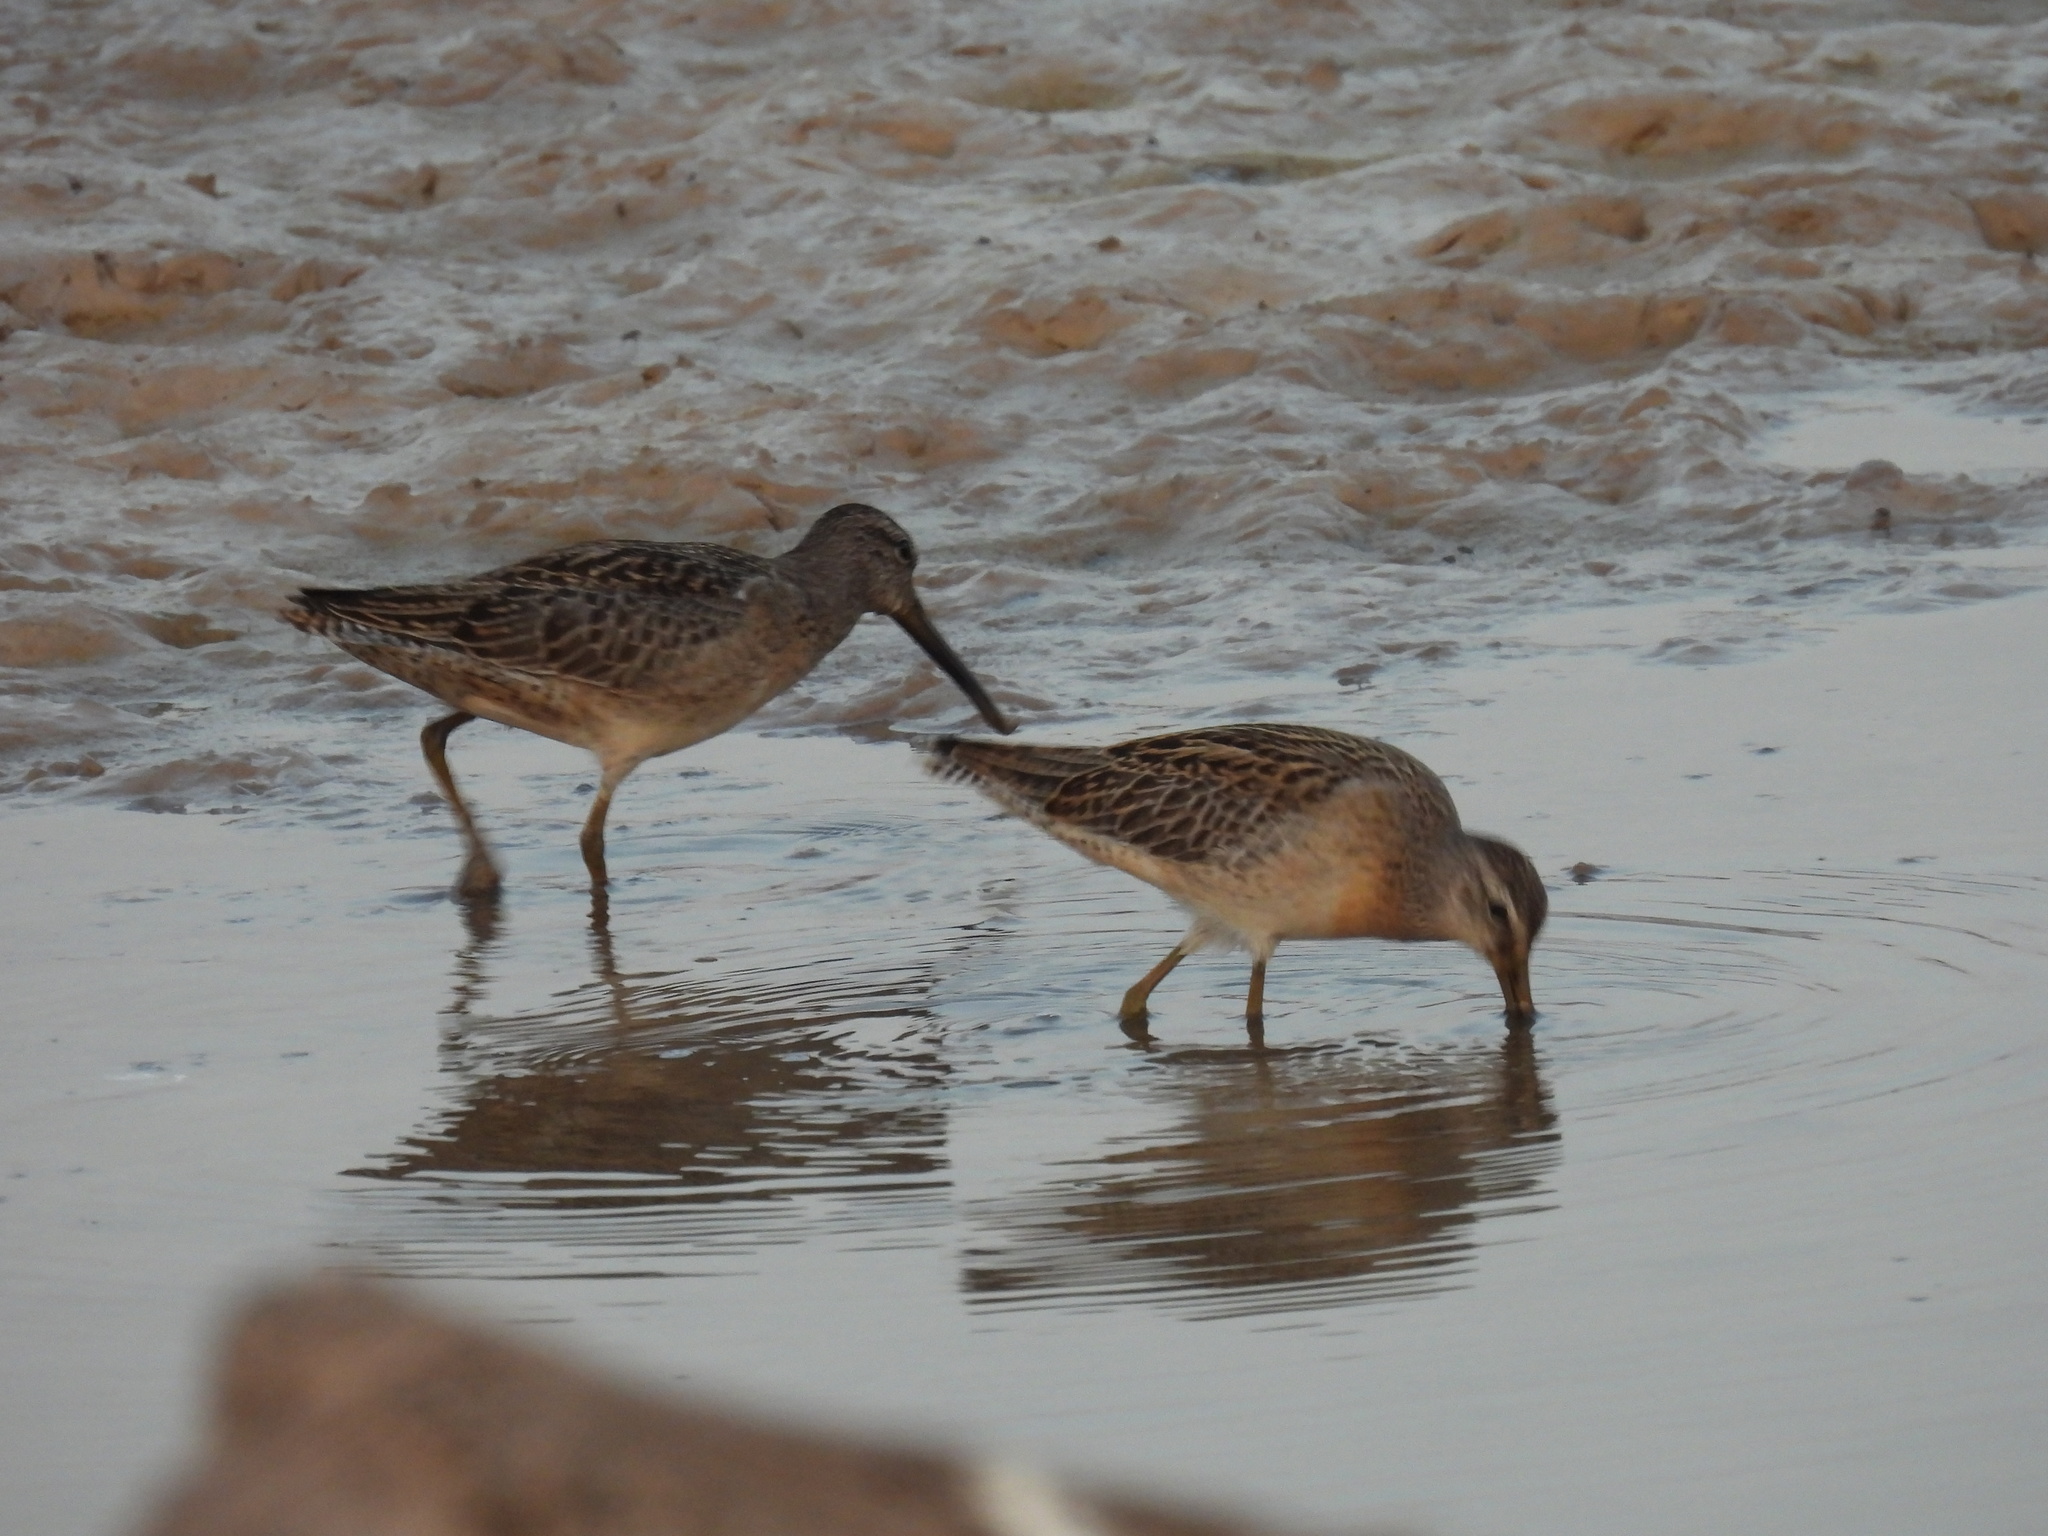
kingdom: Animalia
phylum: Chordata
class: Aves
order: Charadriiformes
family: Scolopacidae
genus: Limnodromus
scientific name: Limnodromus griseus
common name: Short-billed dowitcher
